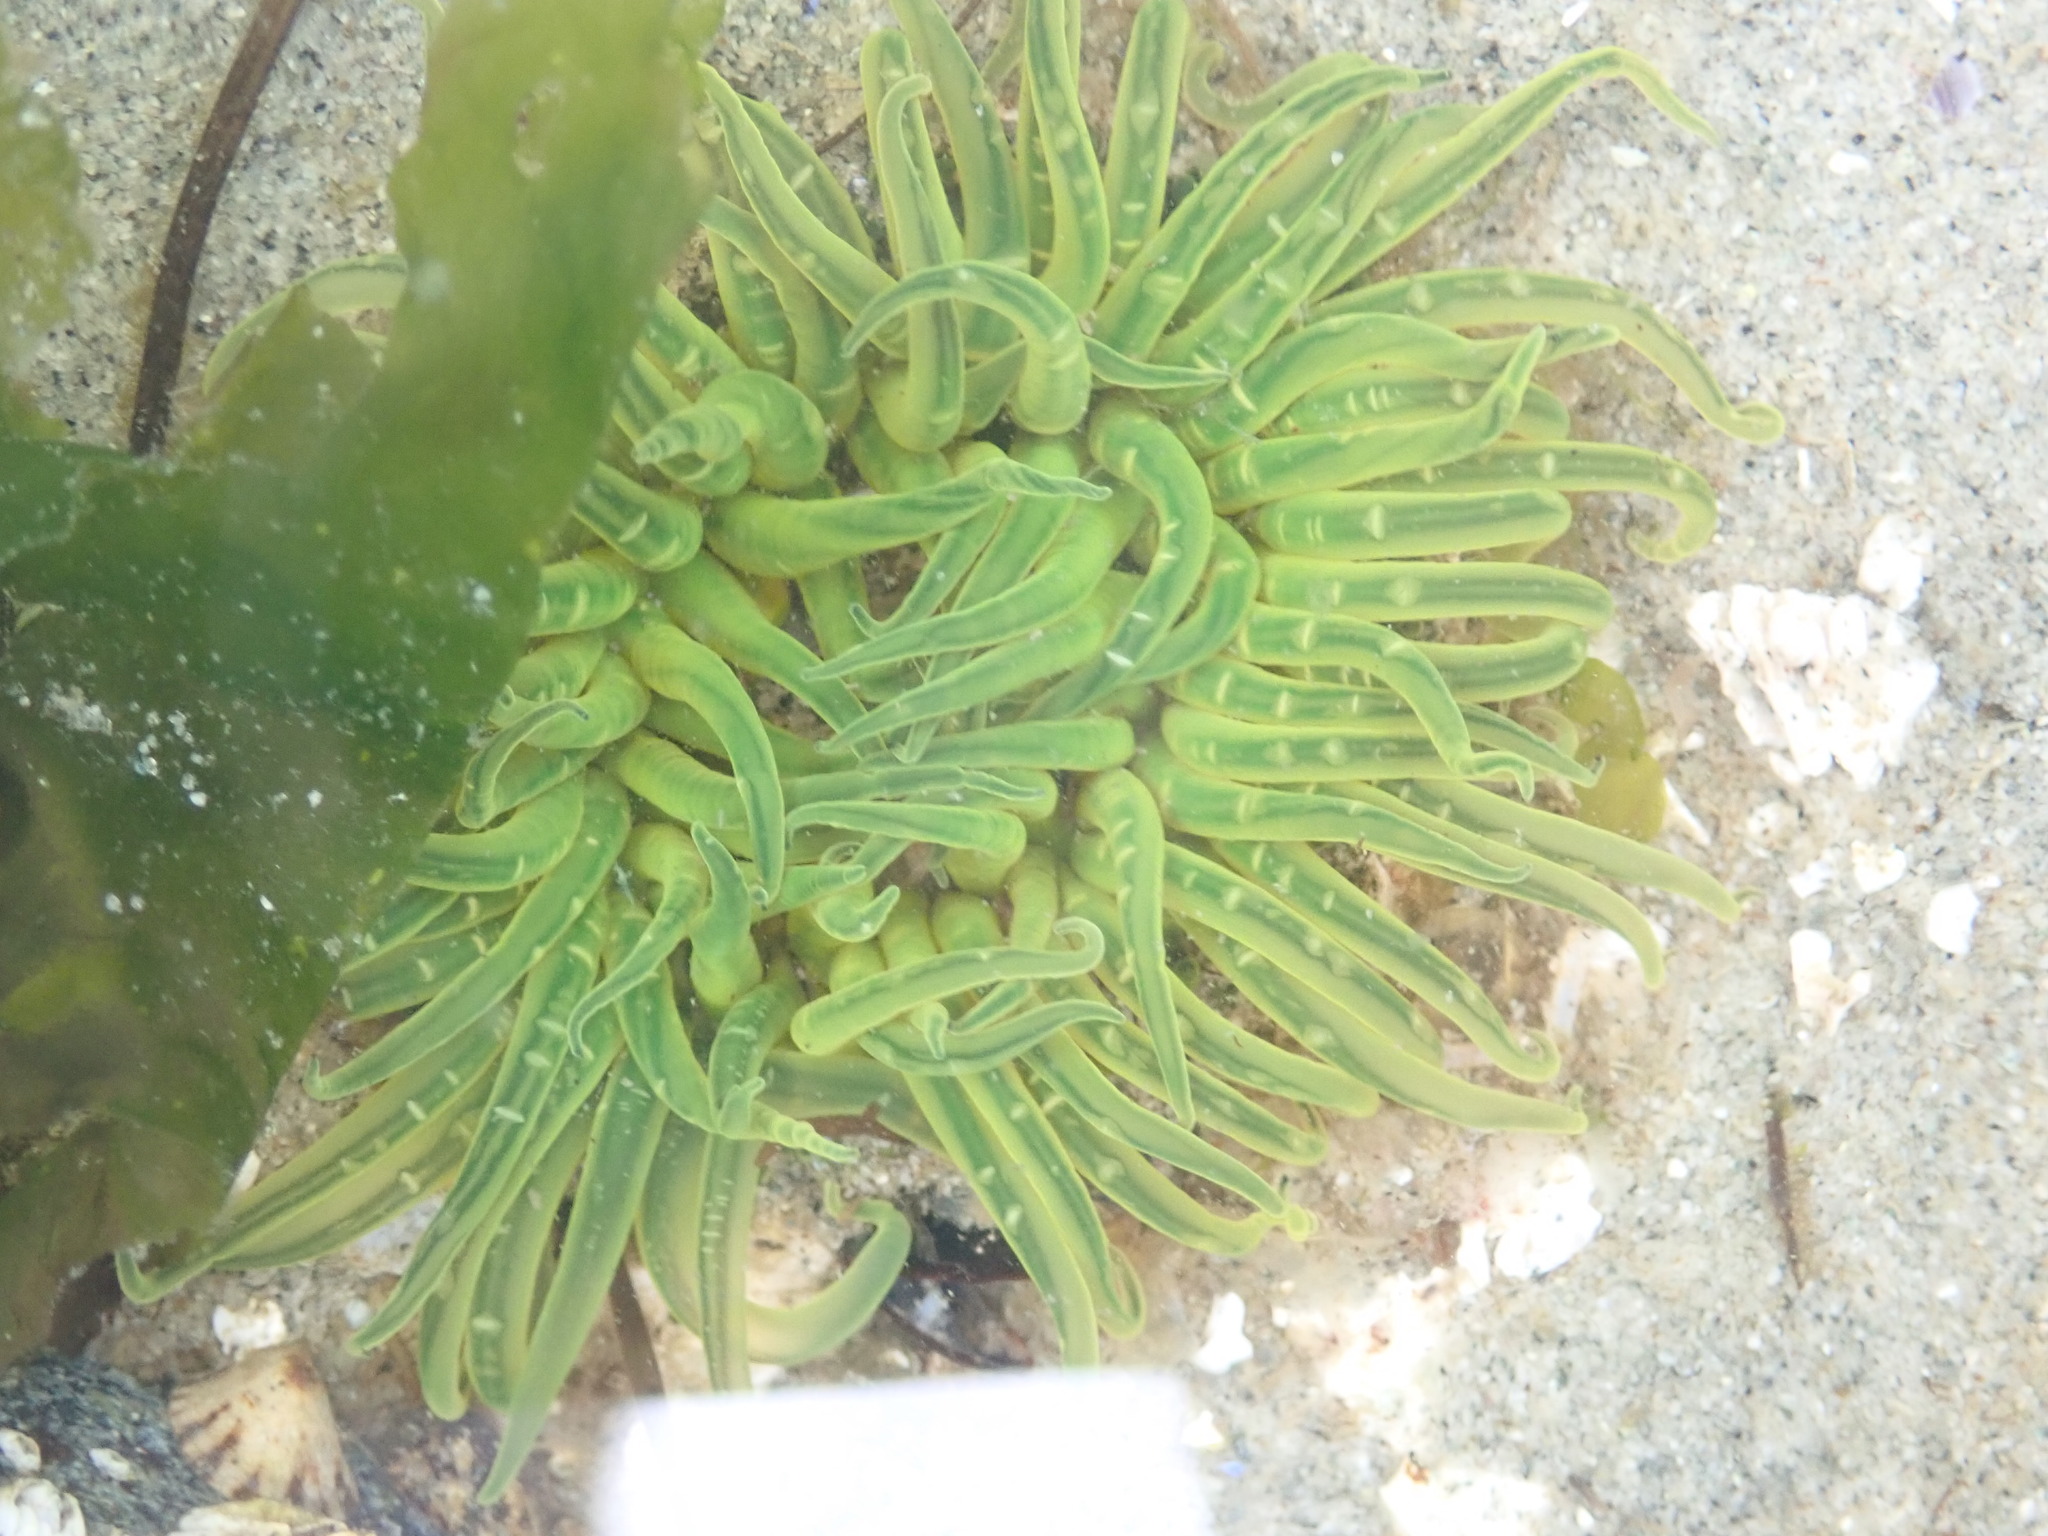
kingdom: Animalia
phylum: Cnidaria
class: Anthozoa
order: Actiniaria
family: Actiniidae
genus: Anthopleura
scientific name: Anthopleura artemisia
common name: Buried sea anemone
